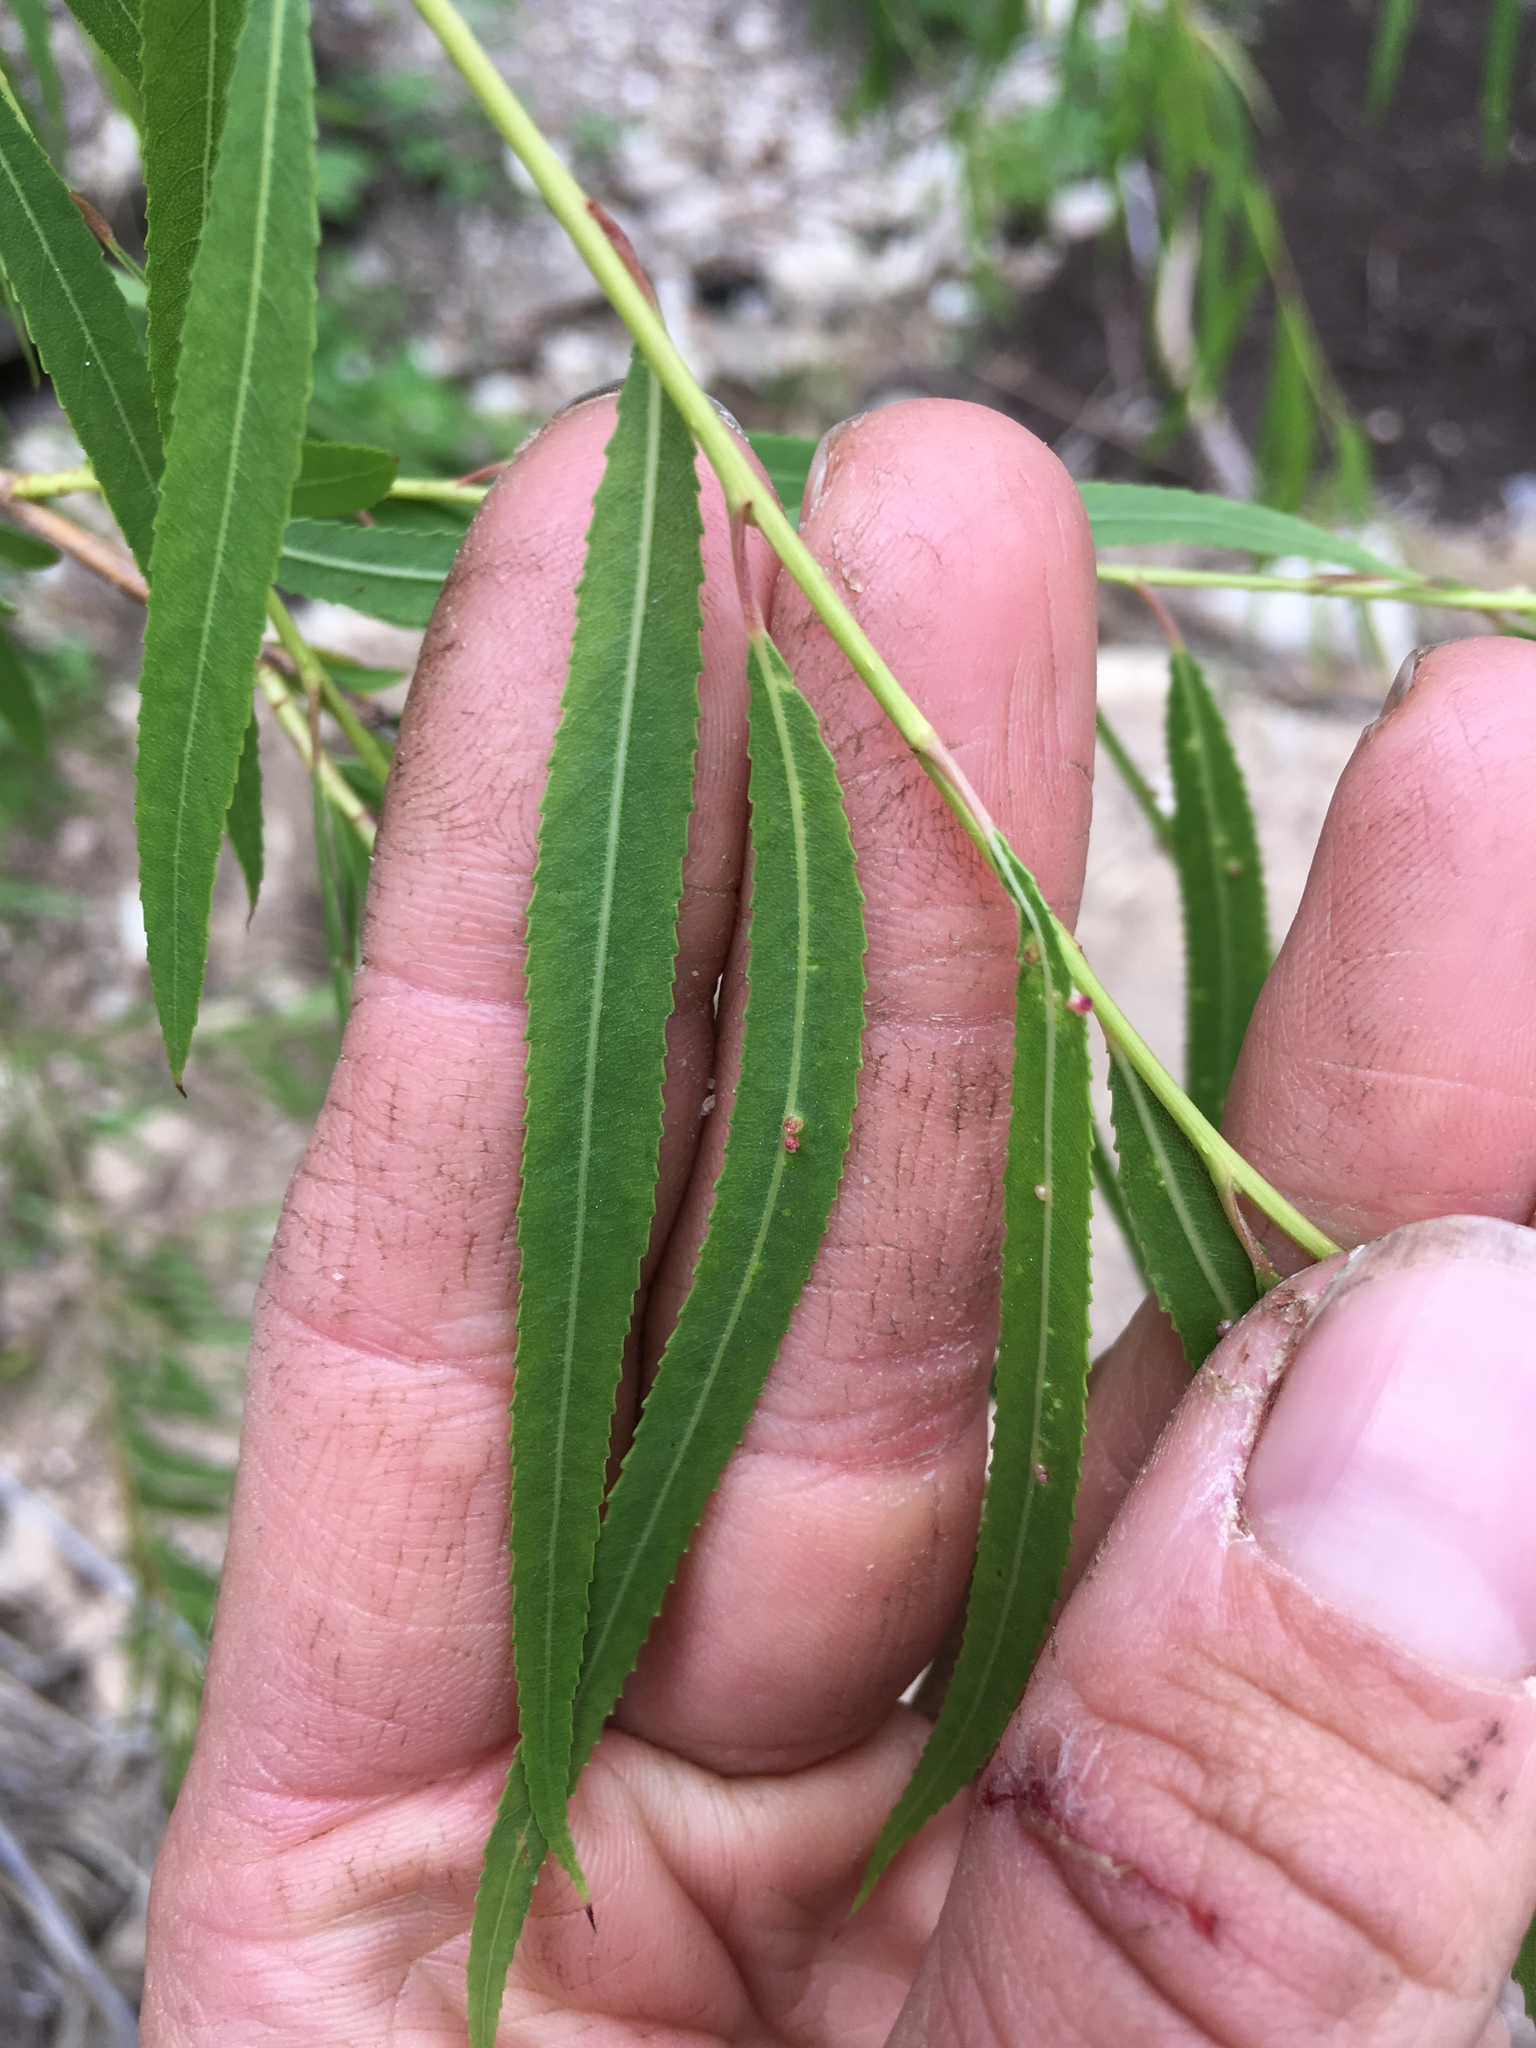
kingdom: Plantae
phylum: Tracheophyta
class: Magnoliopsida
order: Malpighiales
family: Salicaceae
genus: Salix
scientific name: Salix nigra
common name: Black willow
